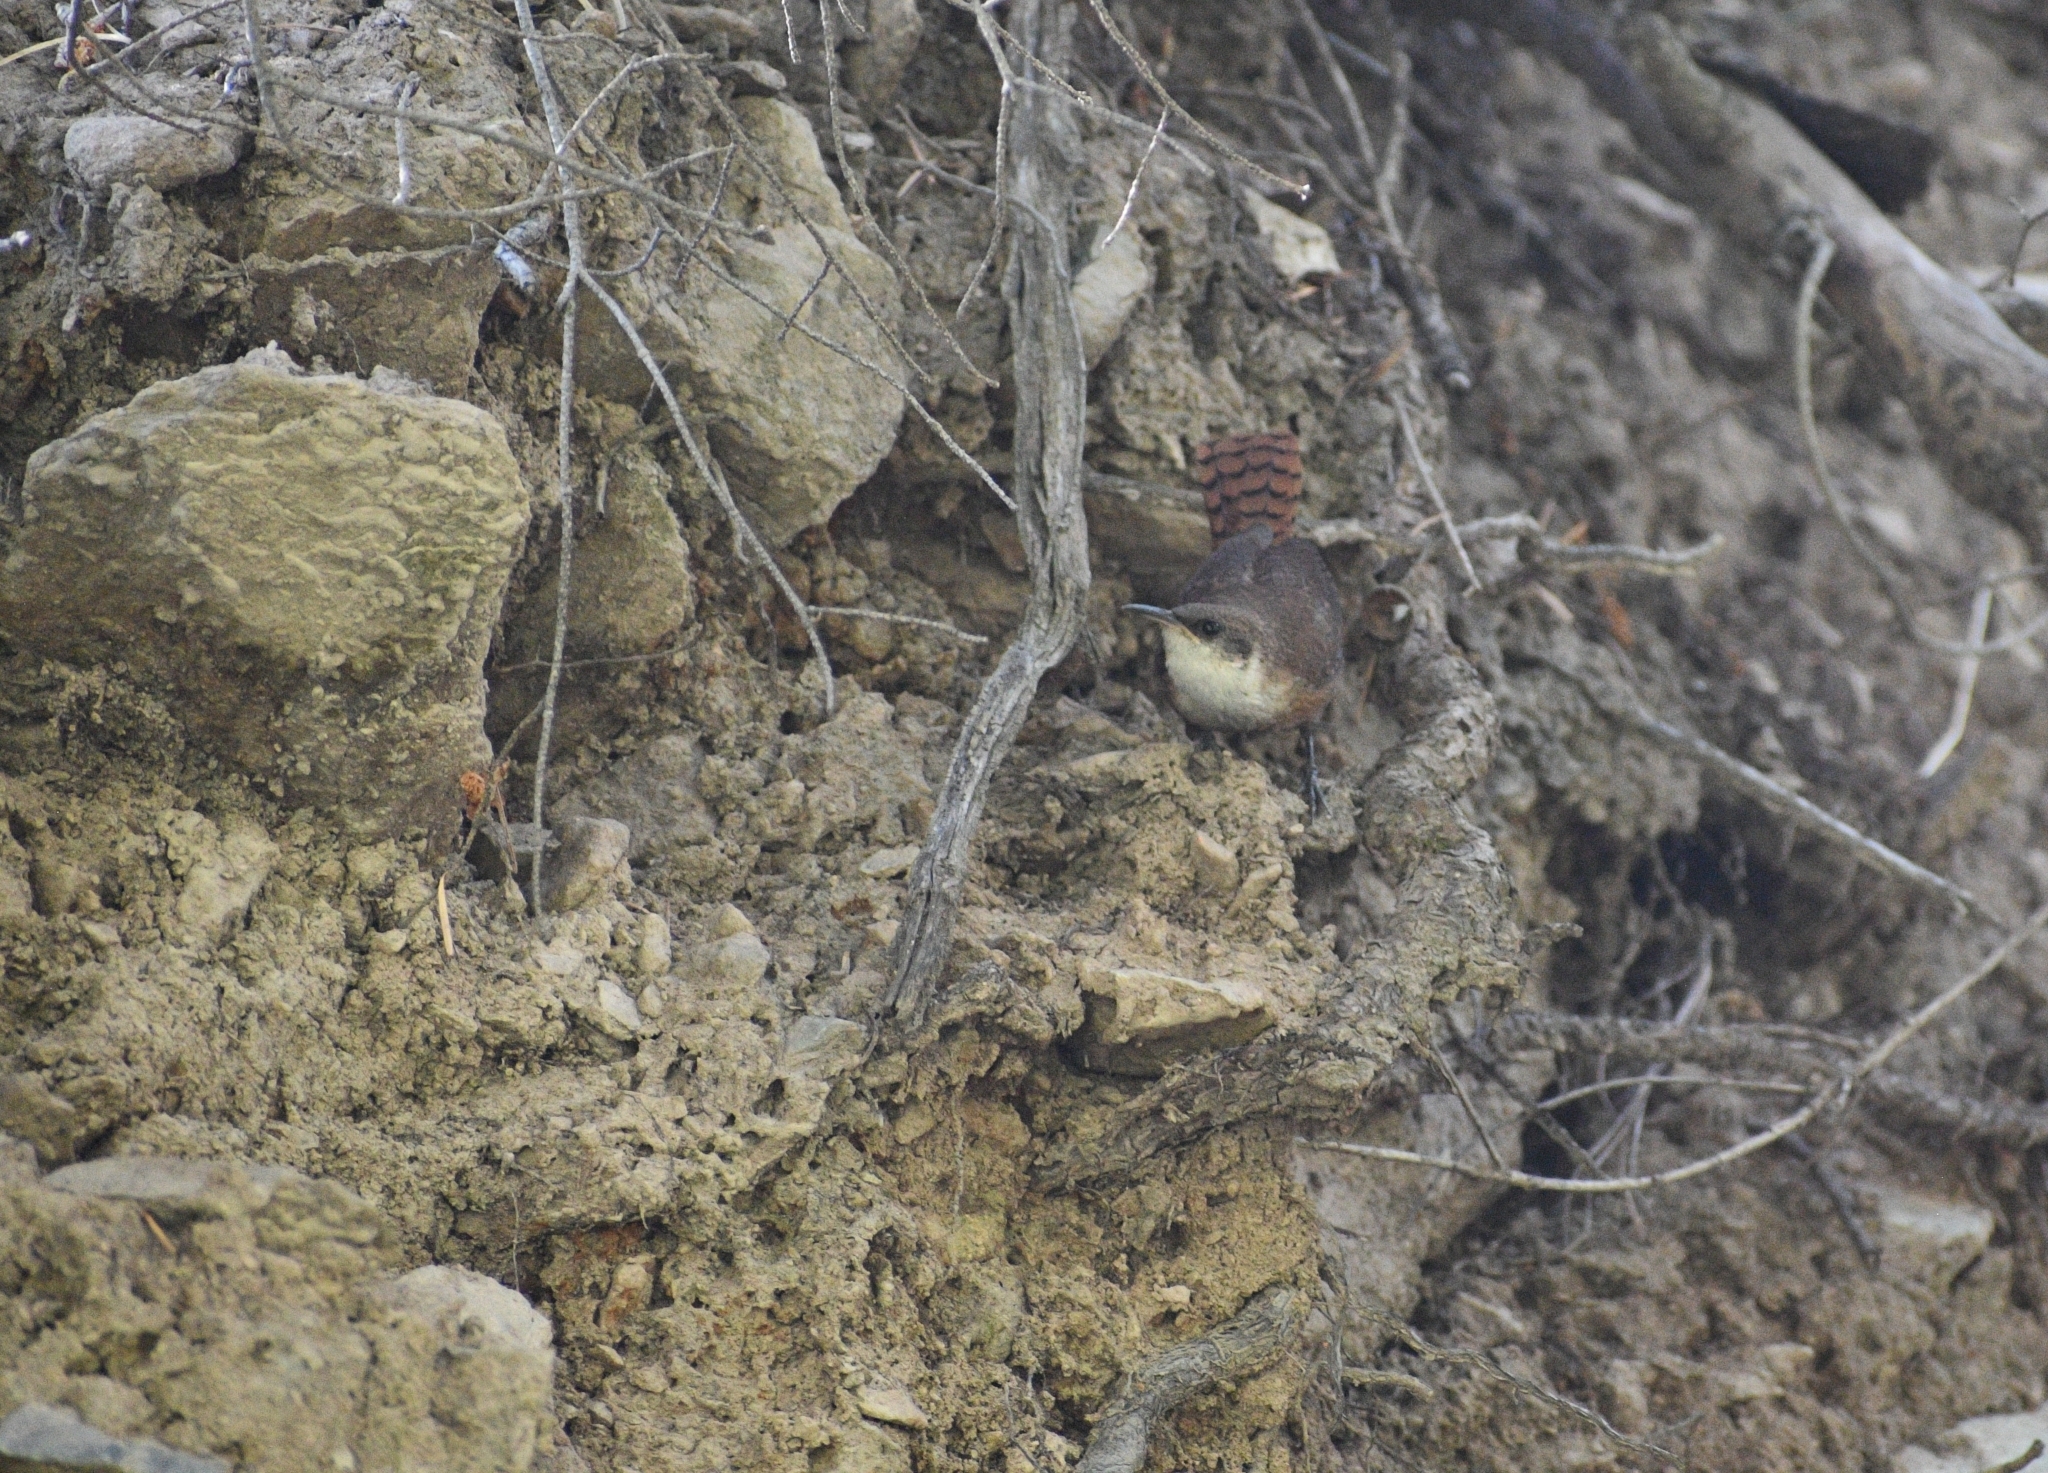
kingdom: Animalia
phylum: Chordata
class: Aves
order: Passeriformes
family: Troglodytidae
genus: Catherpes
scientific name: Catherpes mexicanus
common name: Canyon wren
